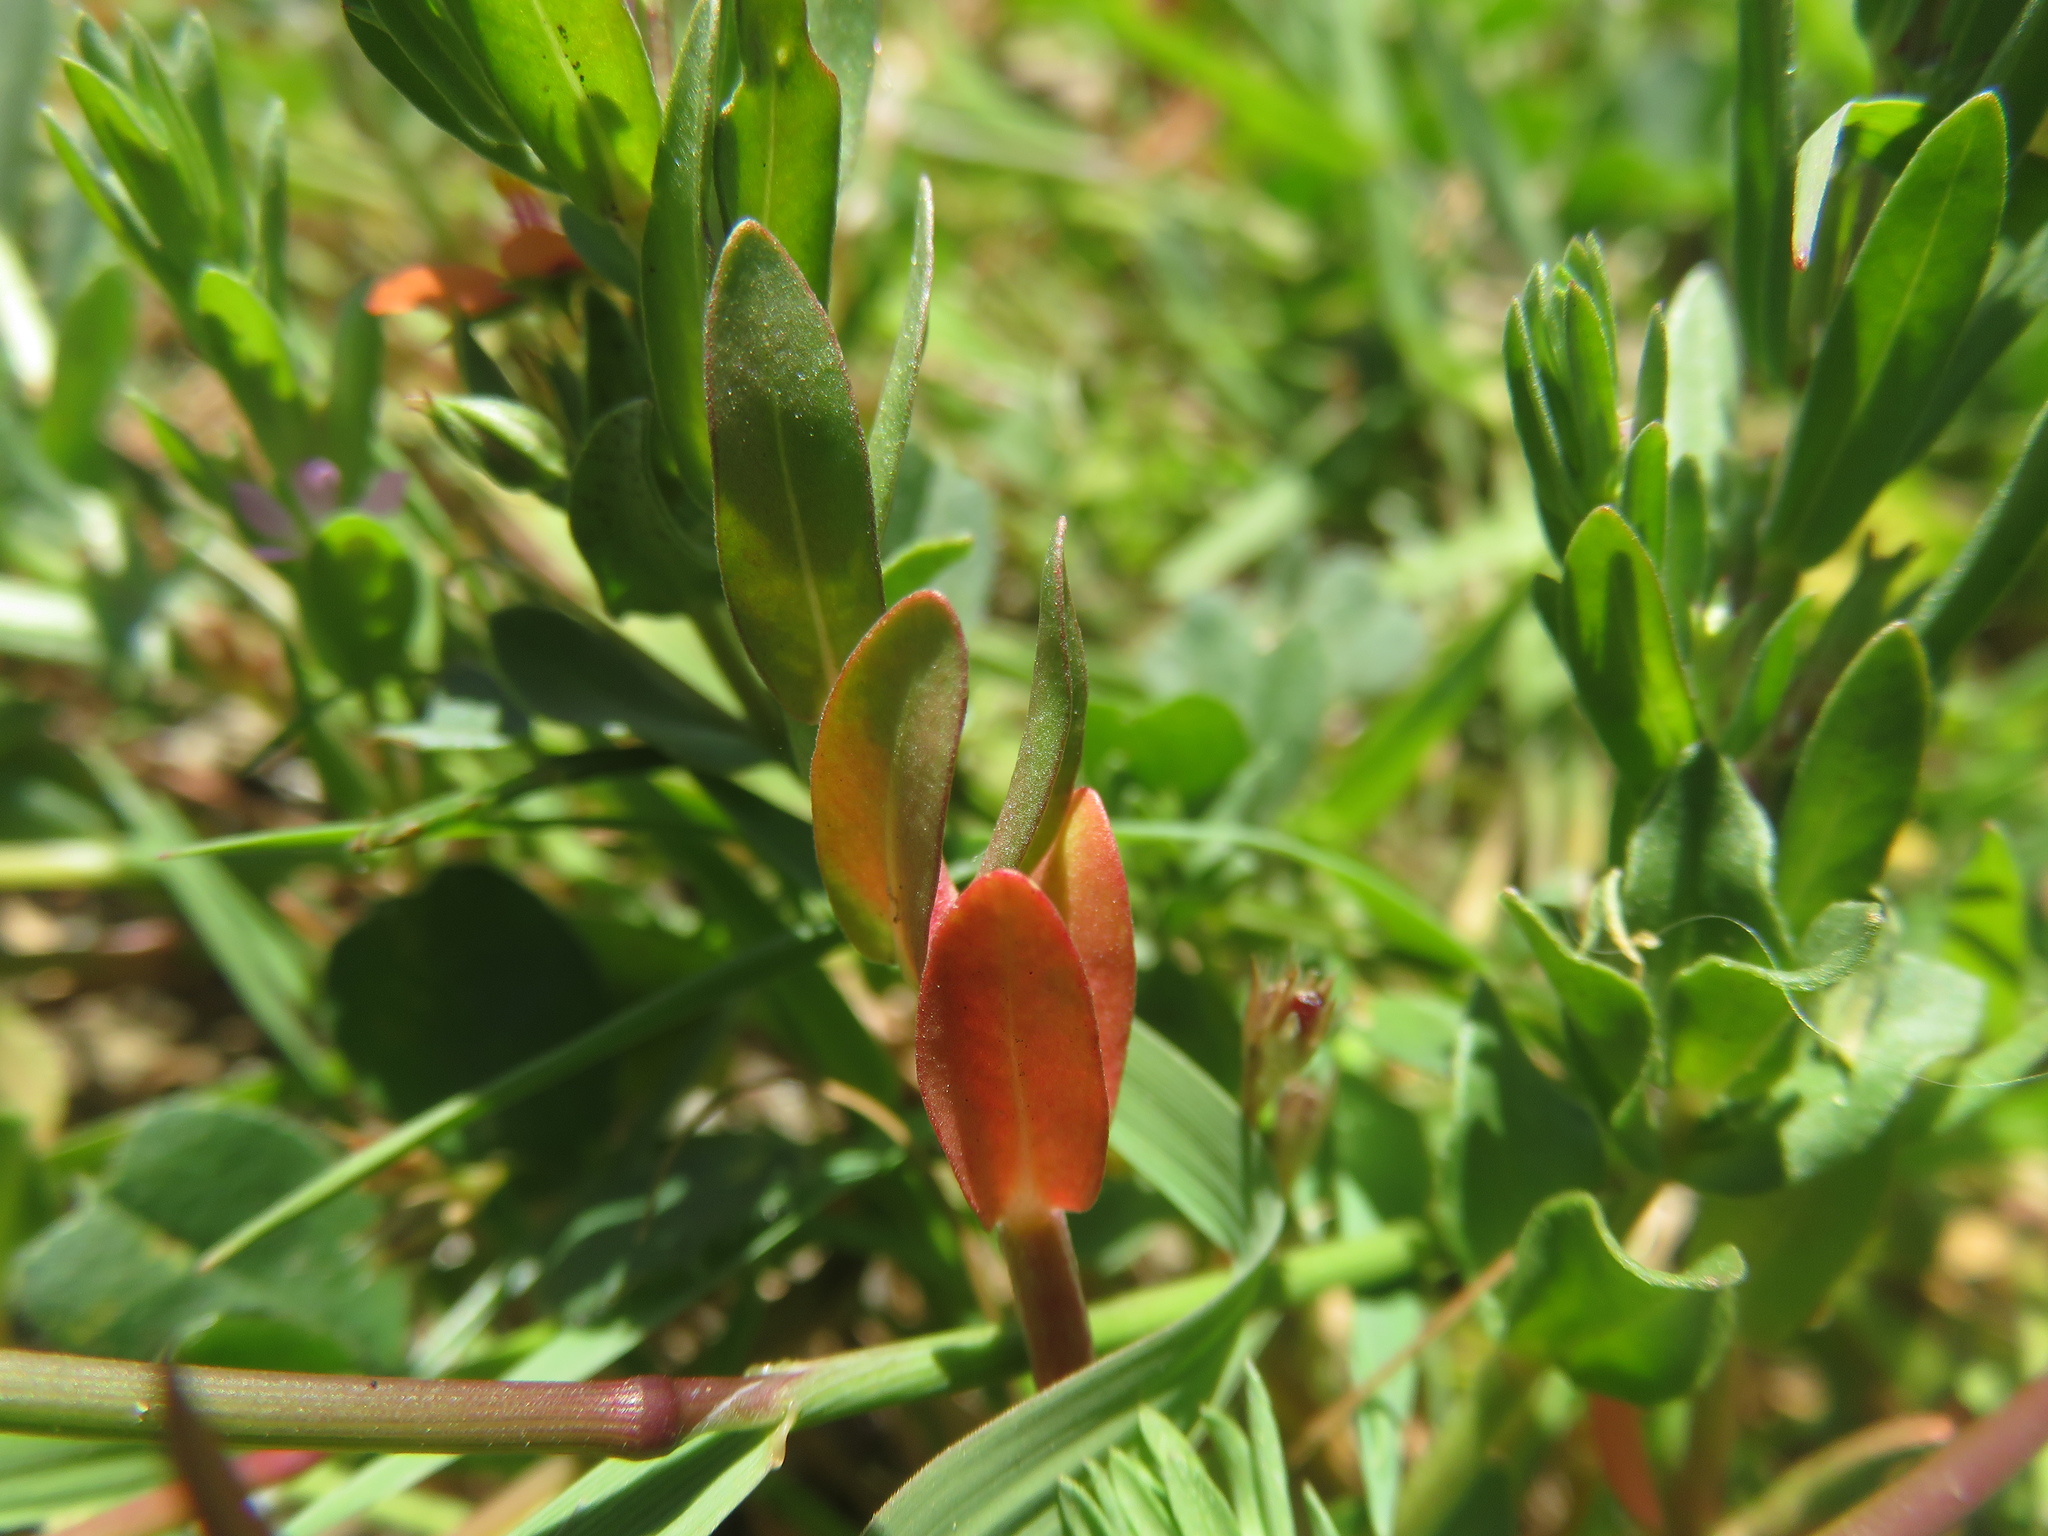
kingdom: Plantae
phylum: Tracheophyta
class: Magnoliopsida
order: Myrtales
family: Lythraceae
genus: Lythrum
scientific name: Lythrum hyssopifolia
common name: Grass-poly
